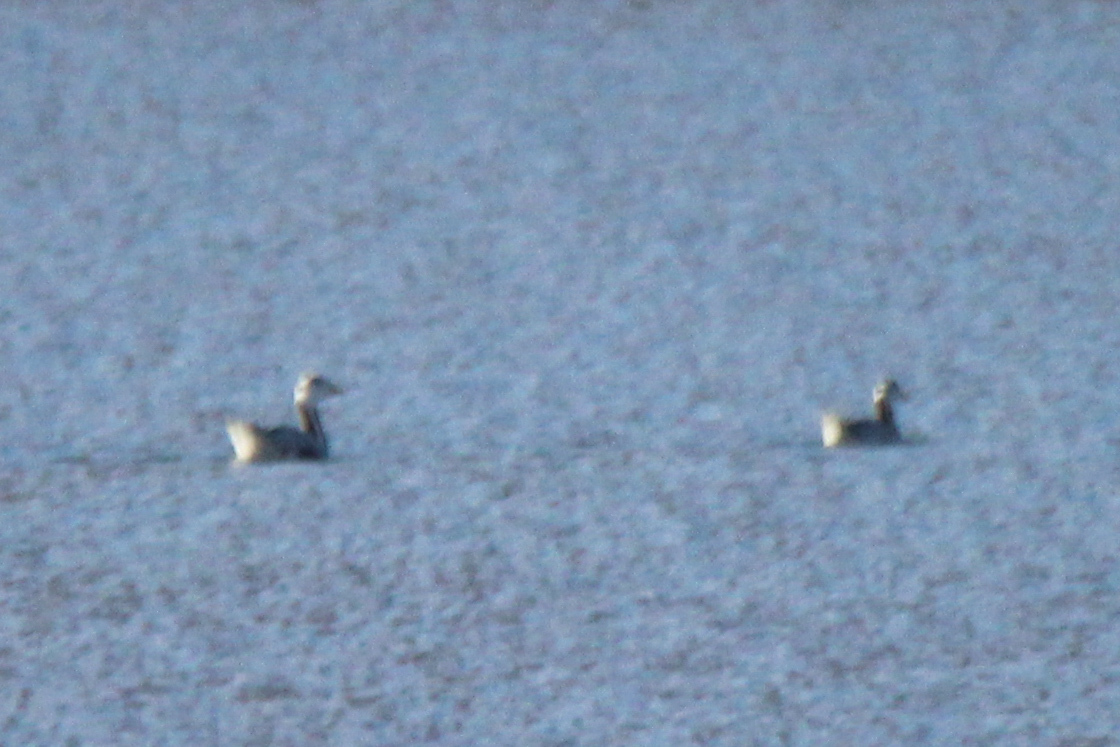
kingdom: Animalia
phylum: Chordata
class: Aves
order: Anseriformes
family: Anatidae
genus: Anser
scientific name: Anser indicus
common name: Bar-headed goose
